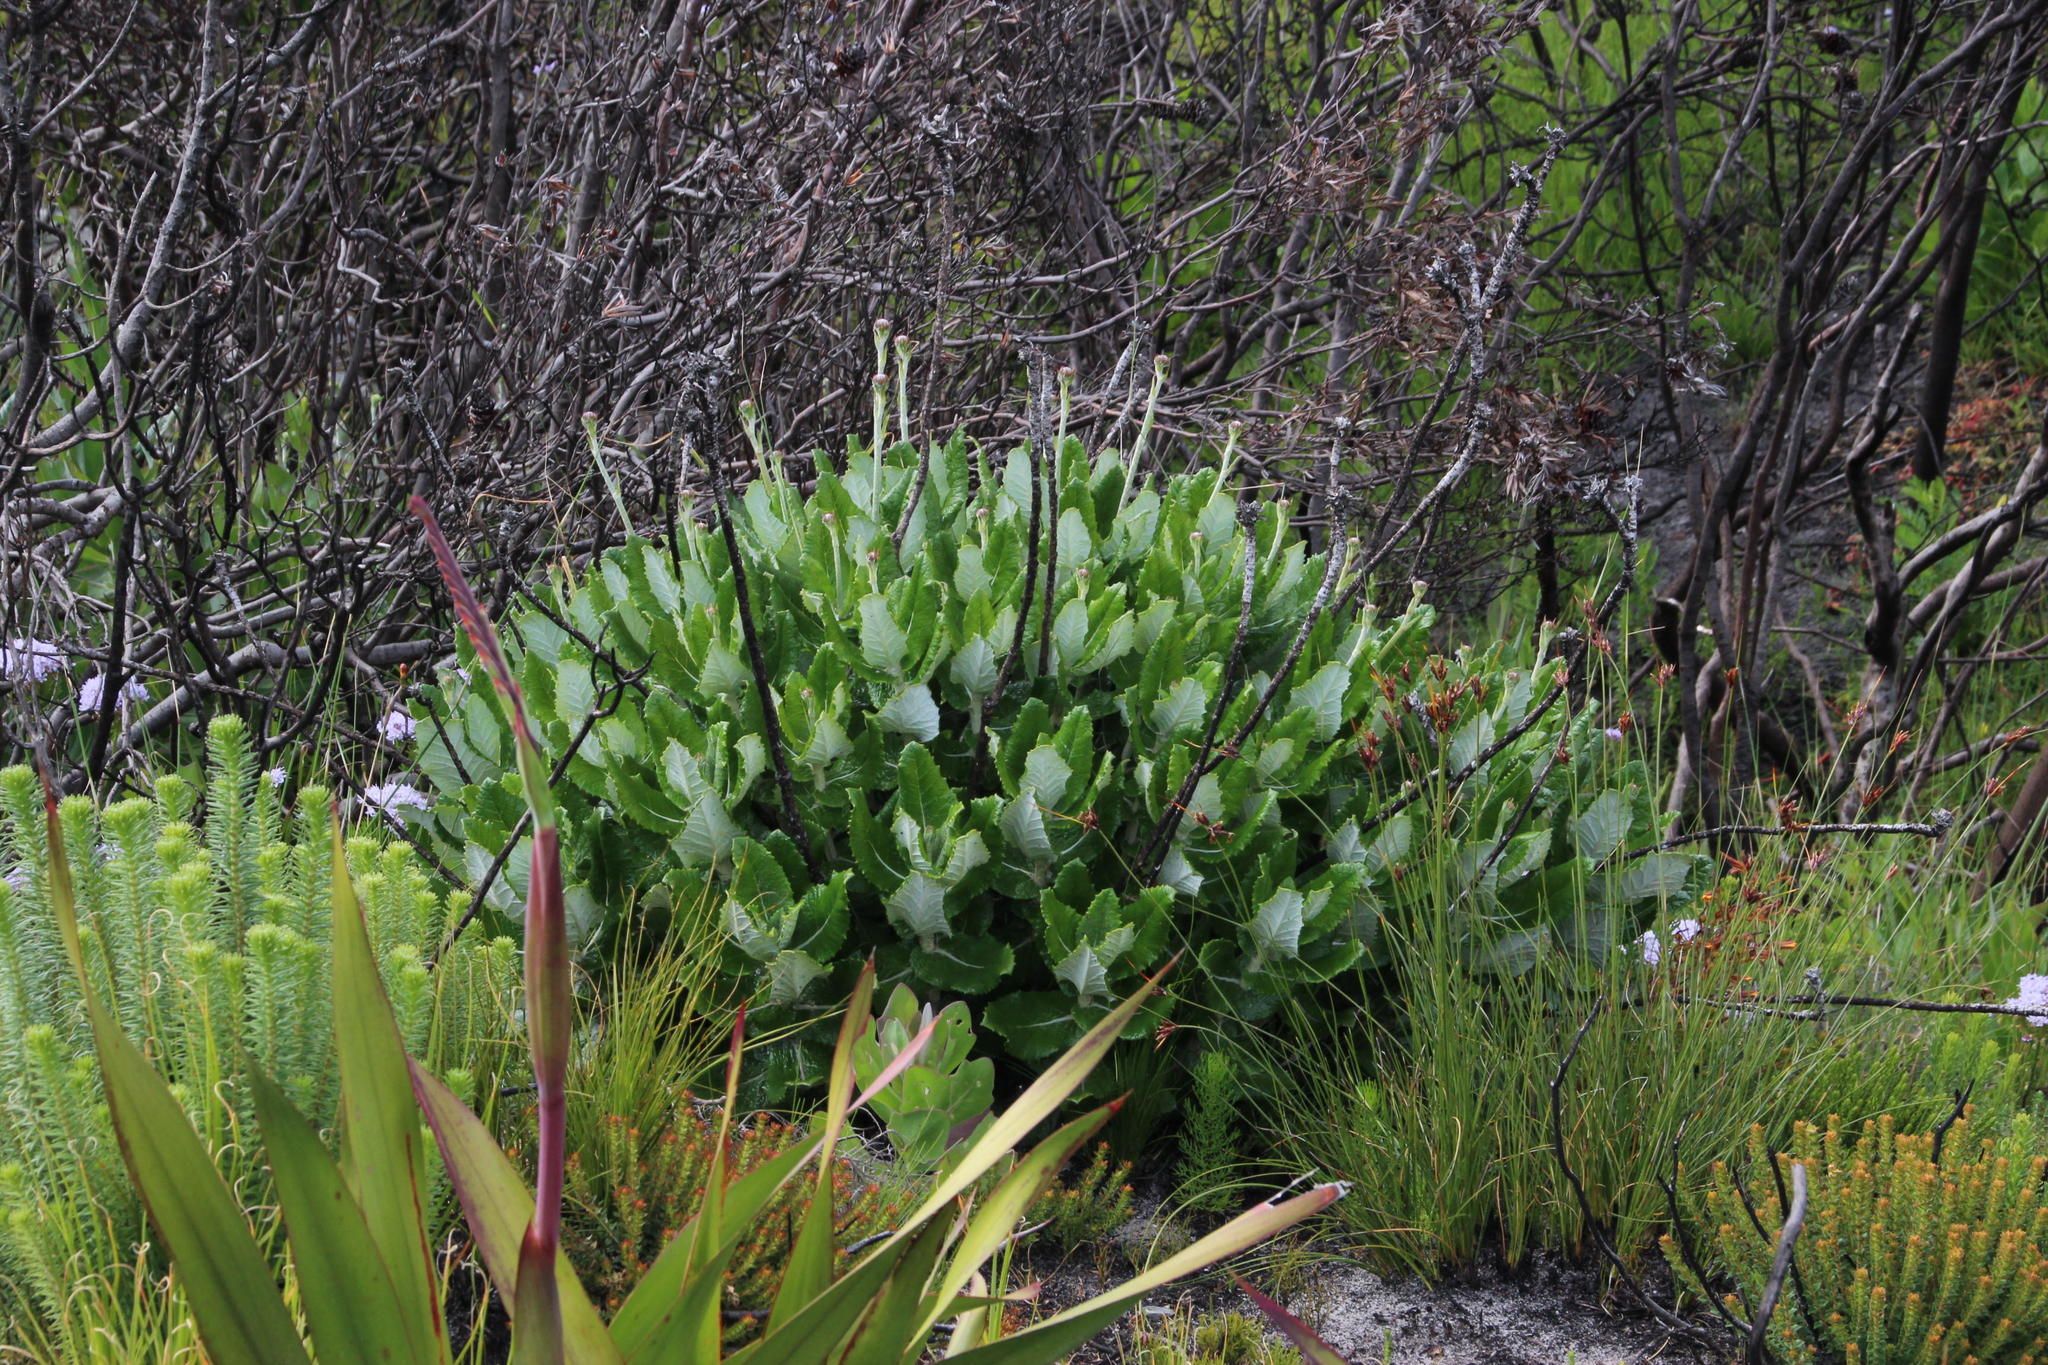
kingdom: Plantae
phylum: Tracheophyta
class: Magnoliopsida
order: Apiales
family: Apiaceae
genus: Hermas
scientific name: Hermas villosa
